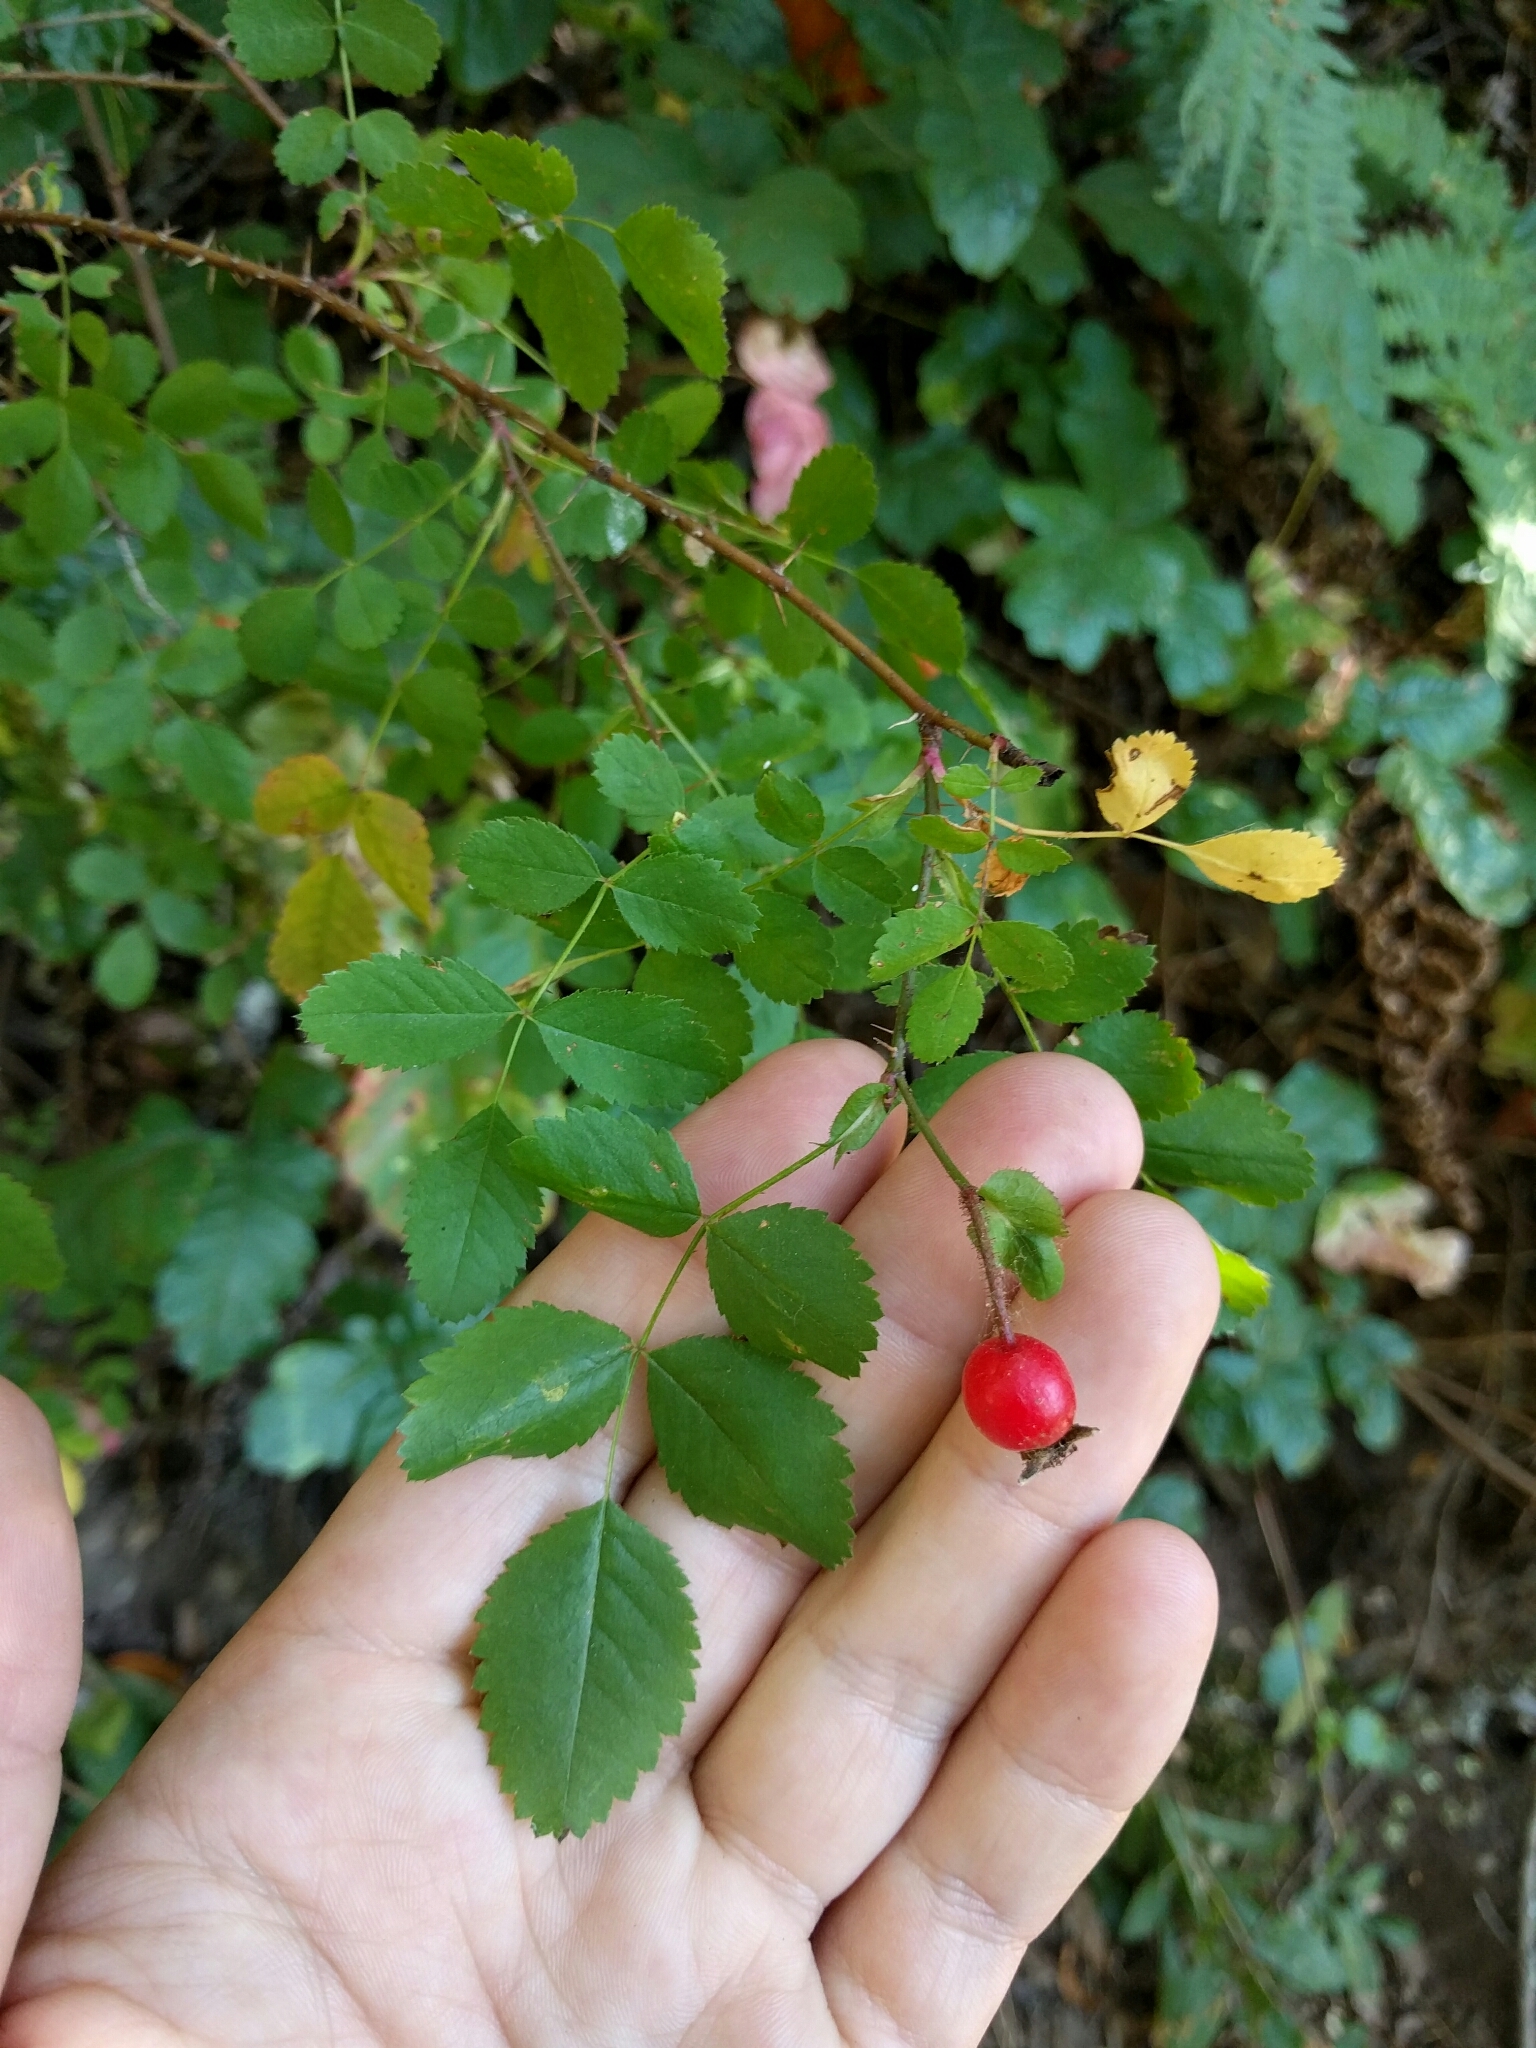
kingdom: Plantae
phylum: Tracheophyta
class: Magnoliopsida
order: Rosales
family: Rosaceae
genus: Rosa
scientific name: Rosa gymnocarpa
